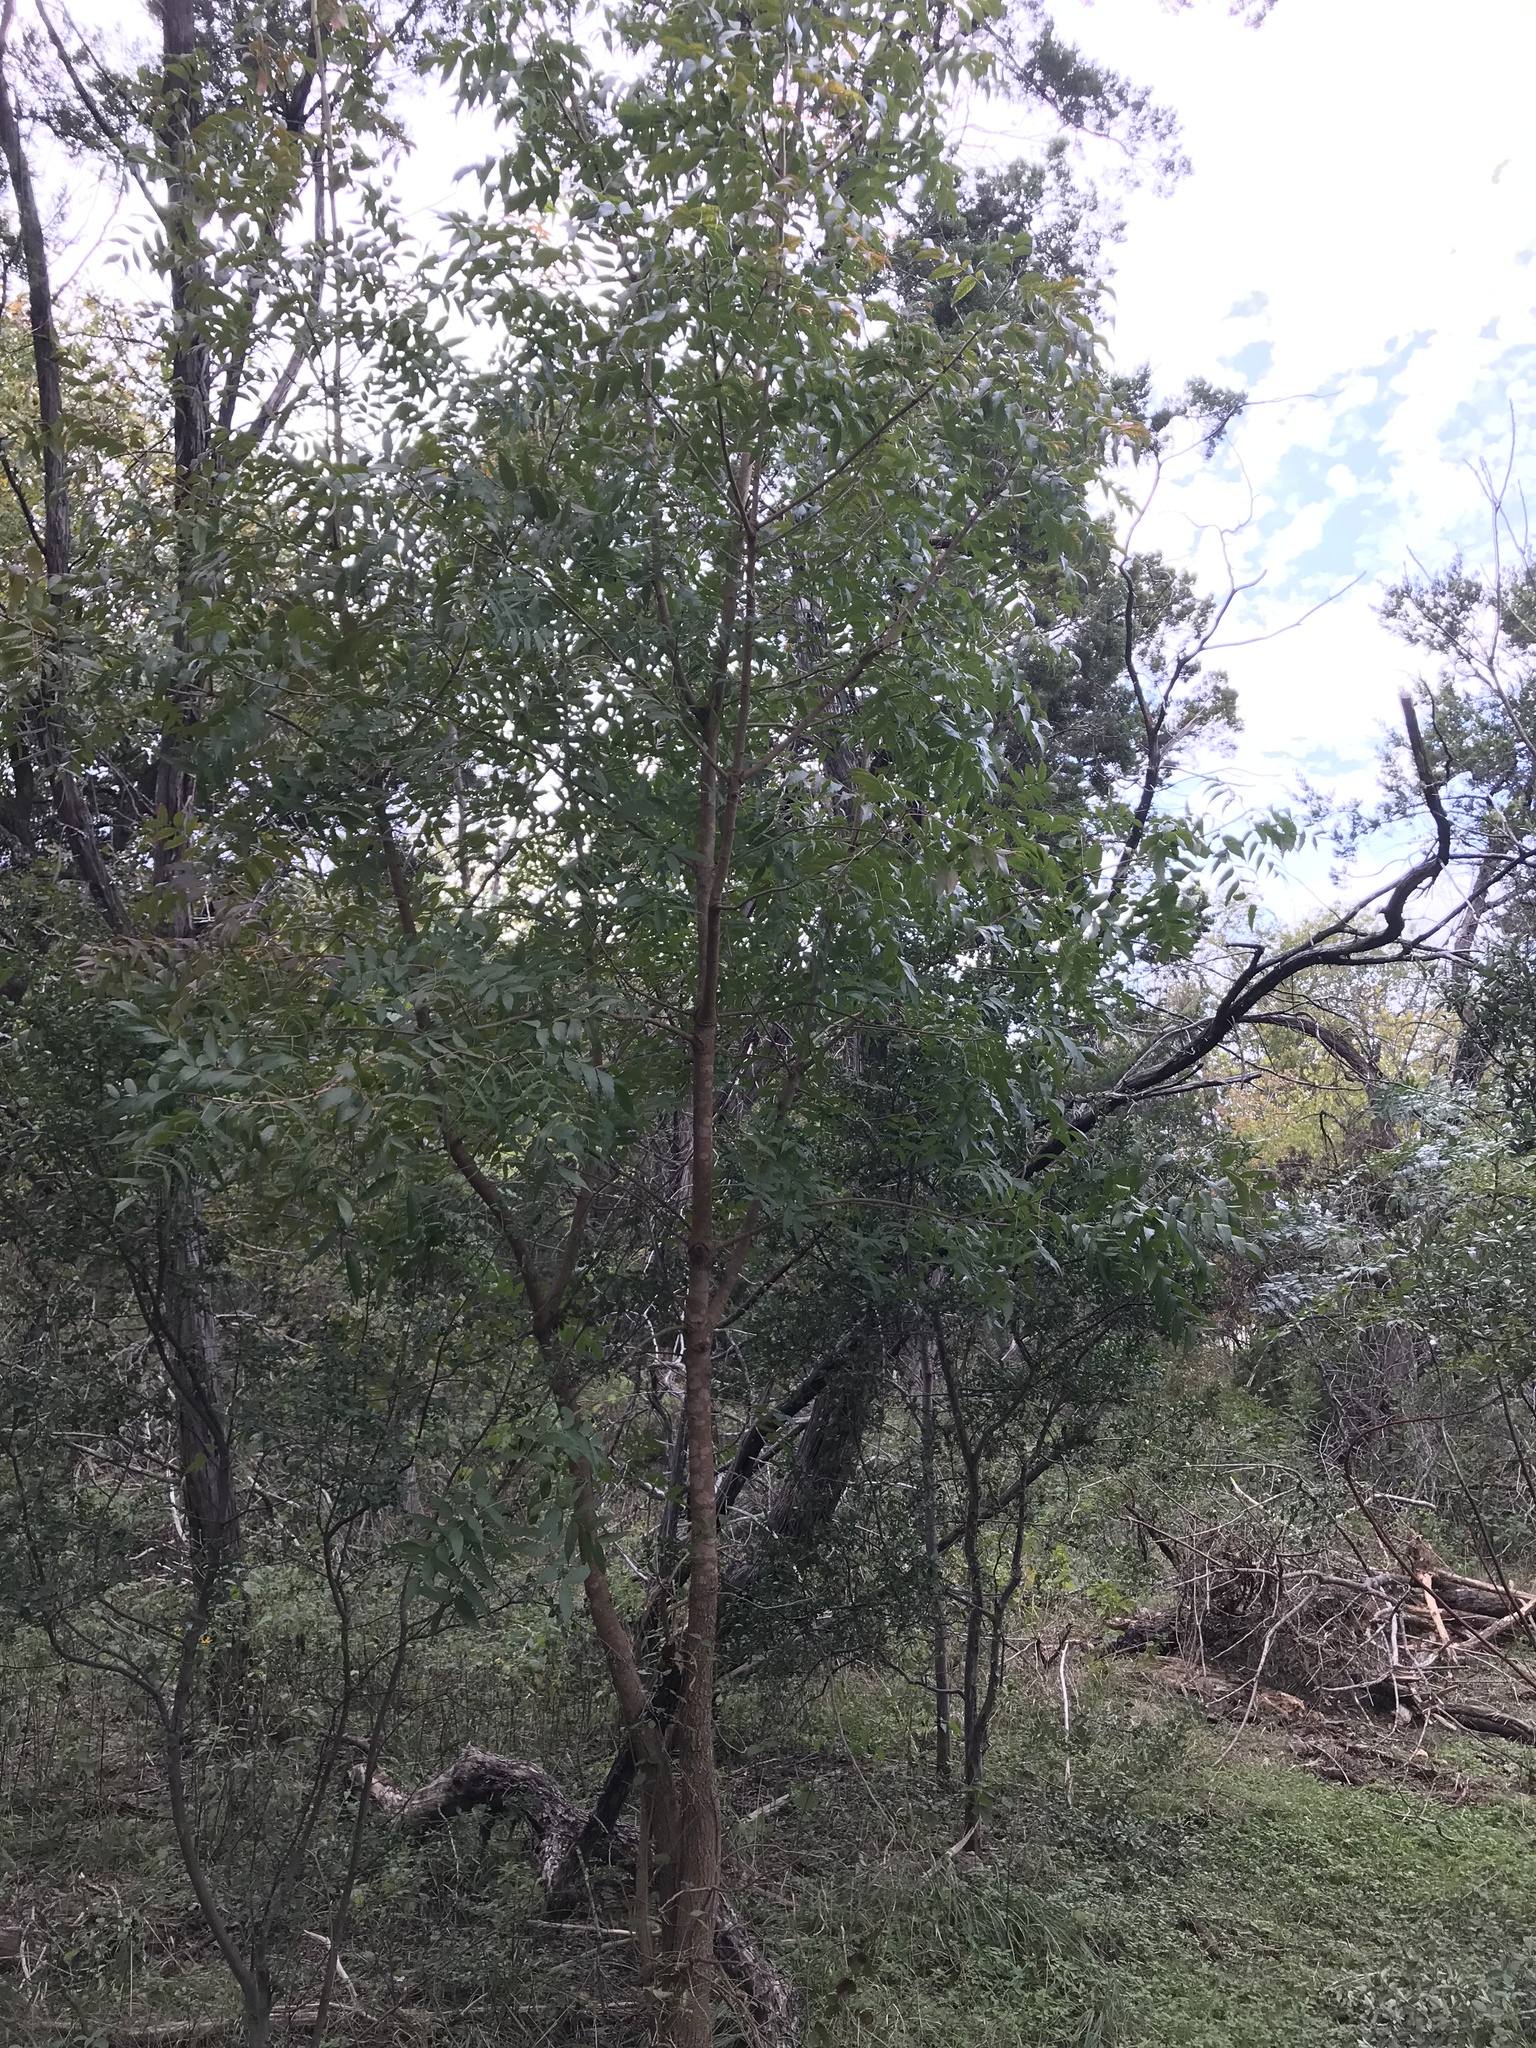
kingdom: Plantae
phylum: Tracheophyta
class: Magnoliopsida
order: Sapindales
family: Anacardiaceae
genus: Pistacia
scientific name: Pistacia chinensis
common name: Chinese pistache
